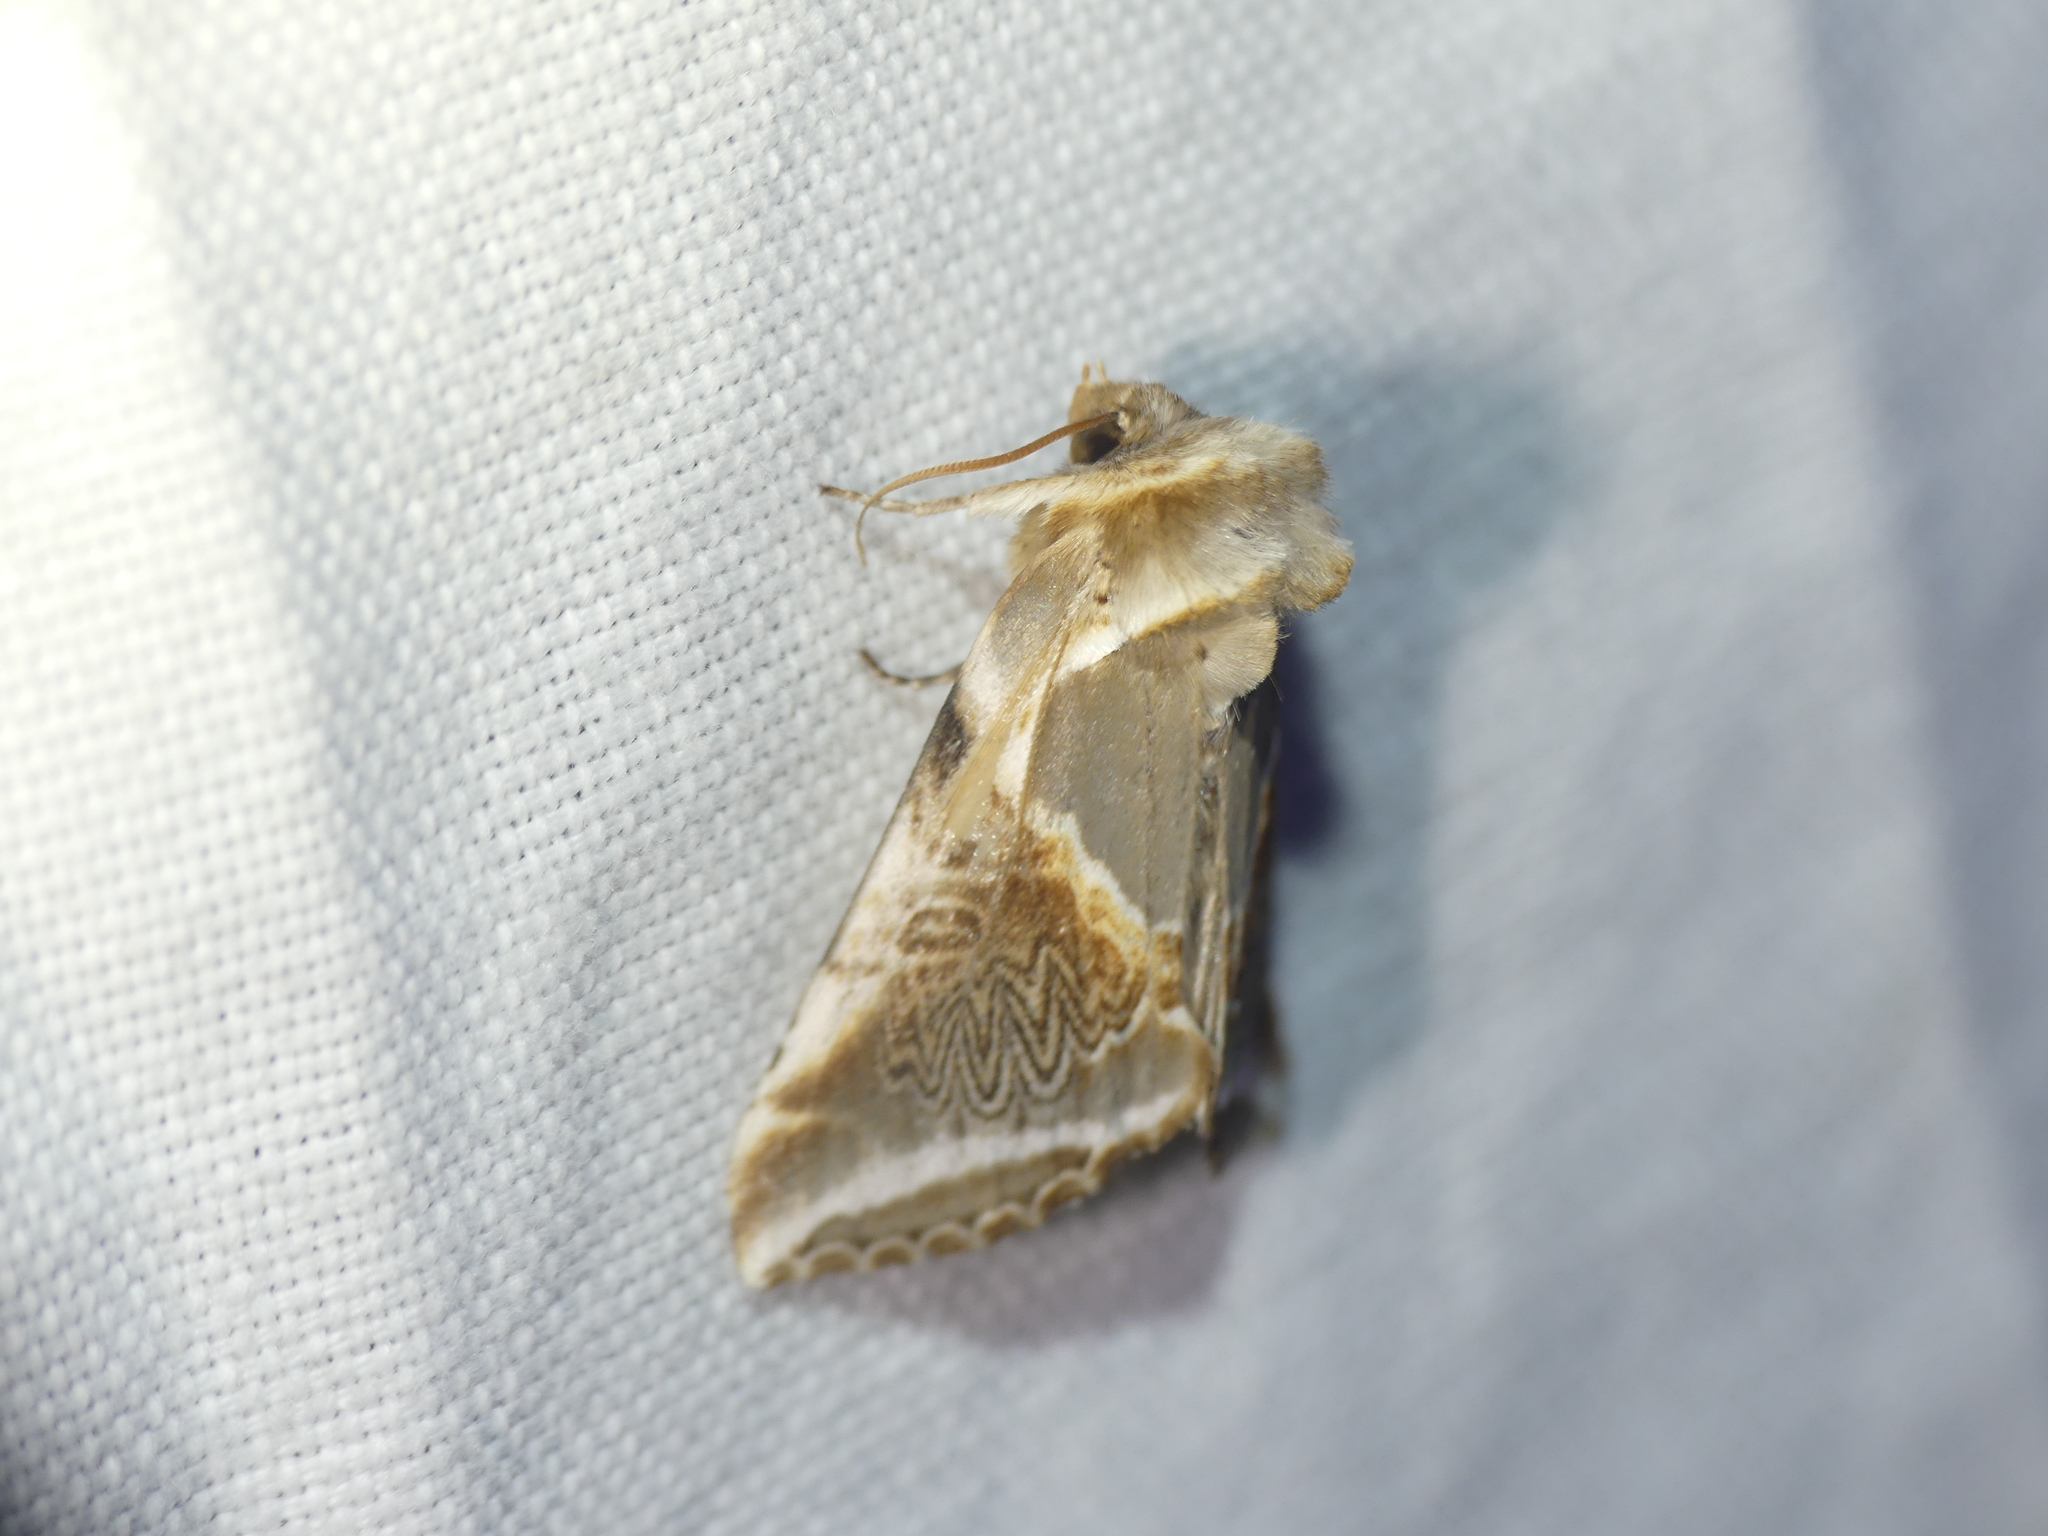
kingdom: Animalia
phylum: Arthropoda
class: Insecta
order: Lepidoptera
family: Drepanidae
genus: Habrosyne
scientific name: Habrosyne pyritoides
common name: Buff arches
